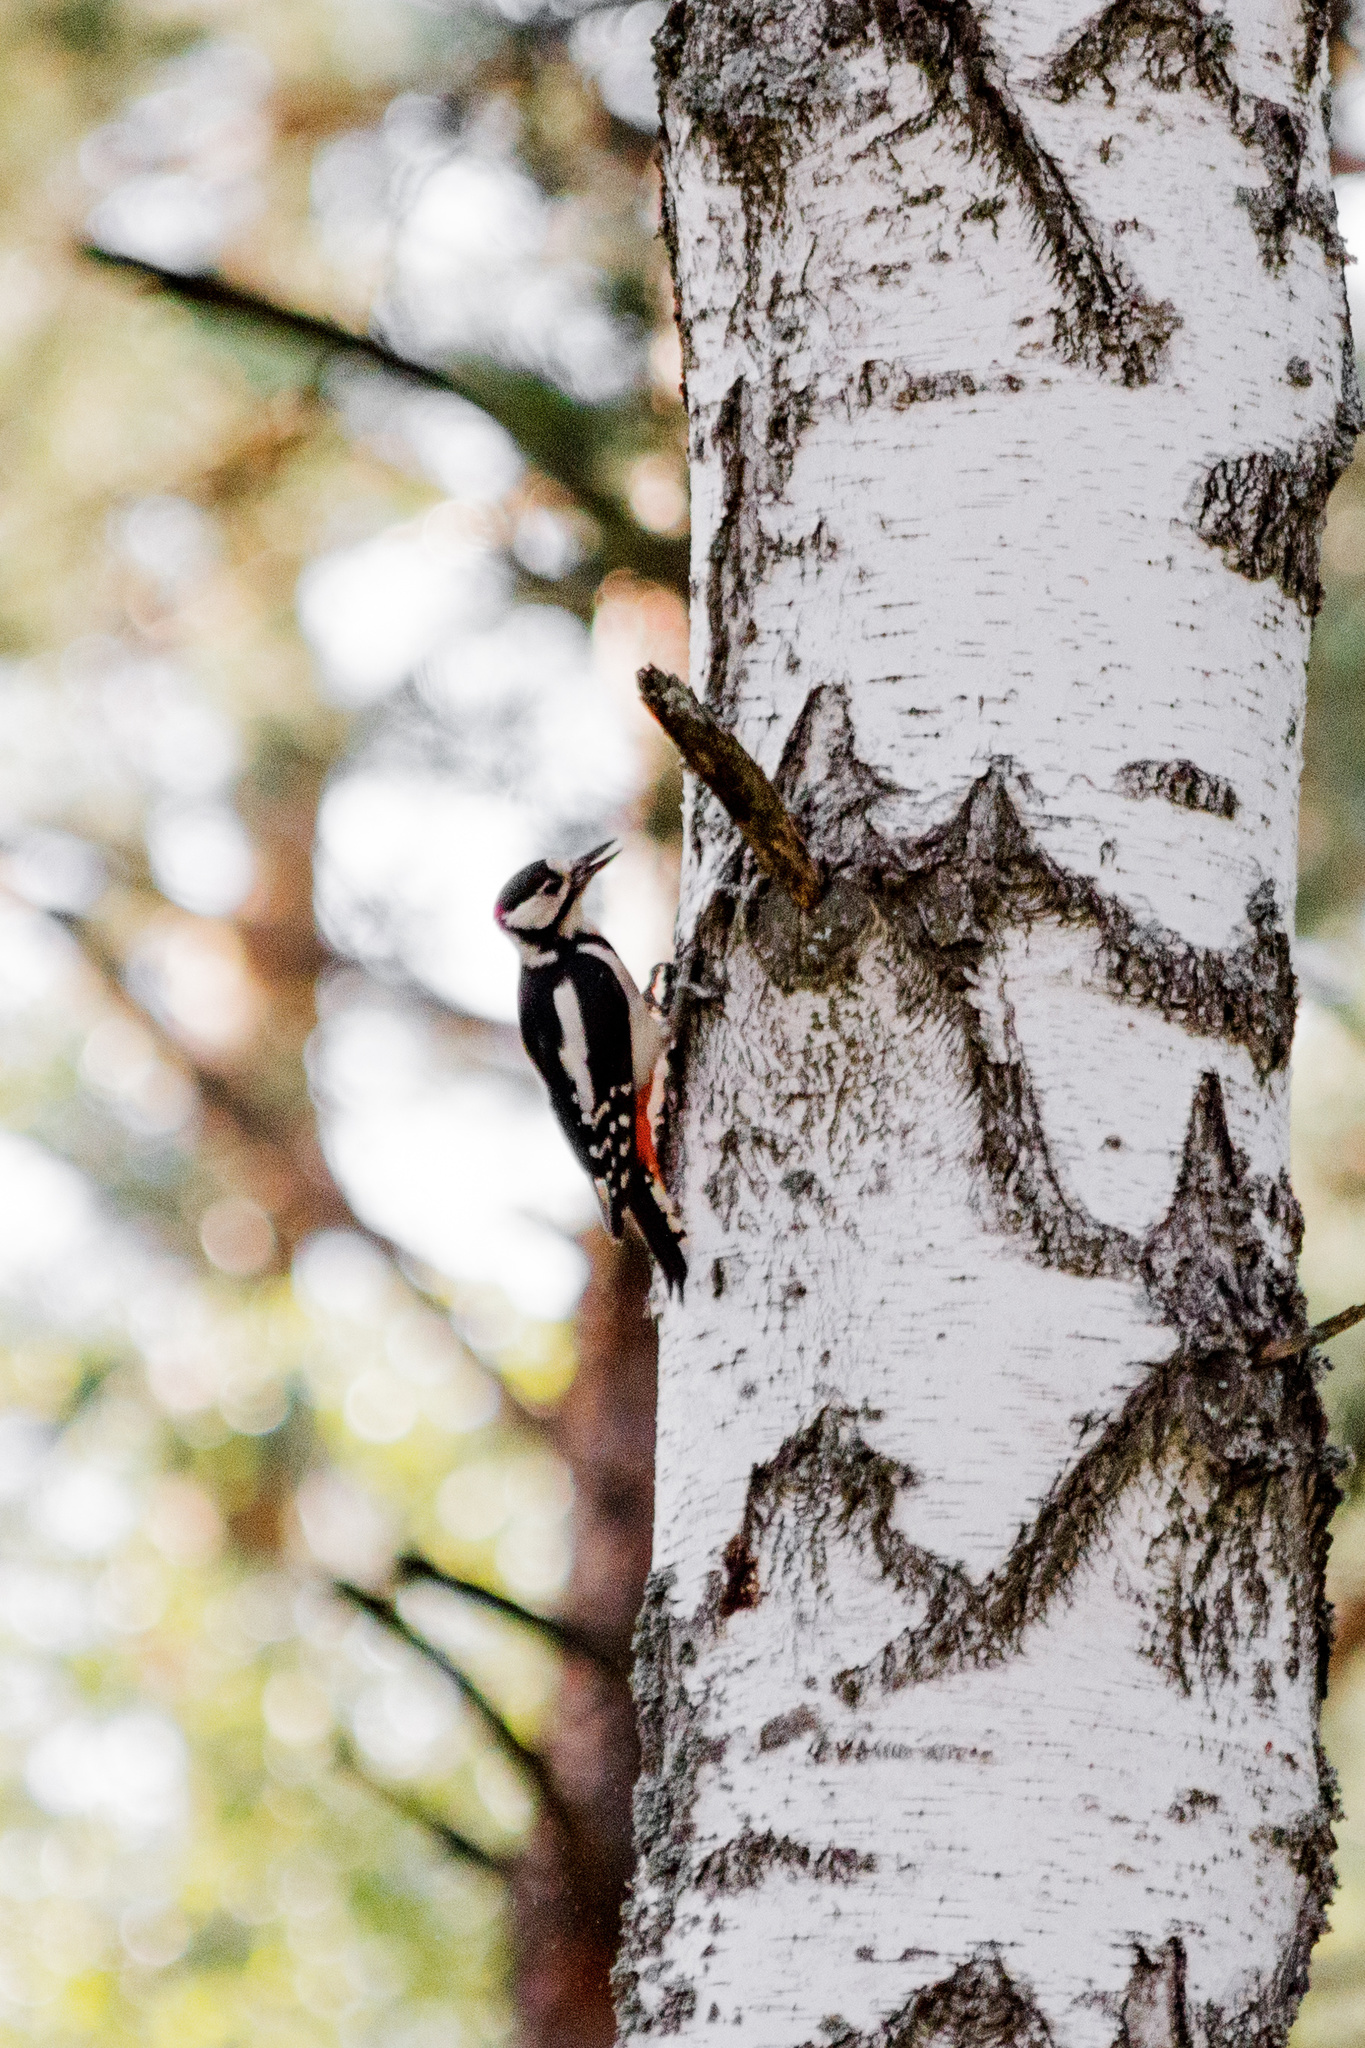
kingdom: Animalia
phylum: Chordata
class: Aves
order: Piciformes
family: Picidae
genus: Dendrocopos
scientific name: Dendrocopos major
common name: Great spotted woodpecker
